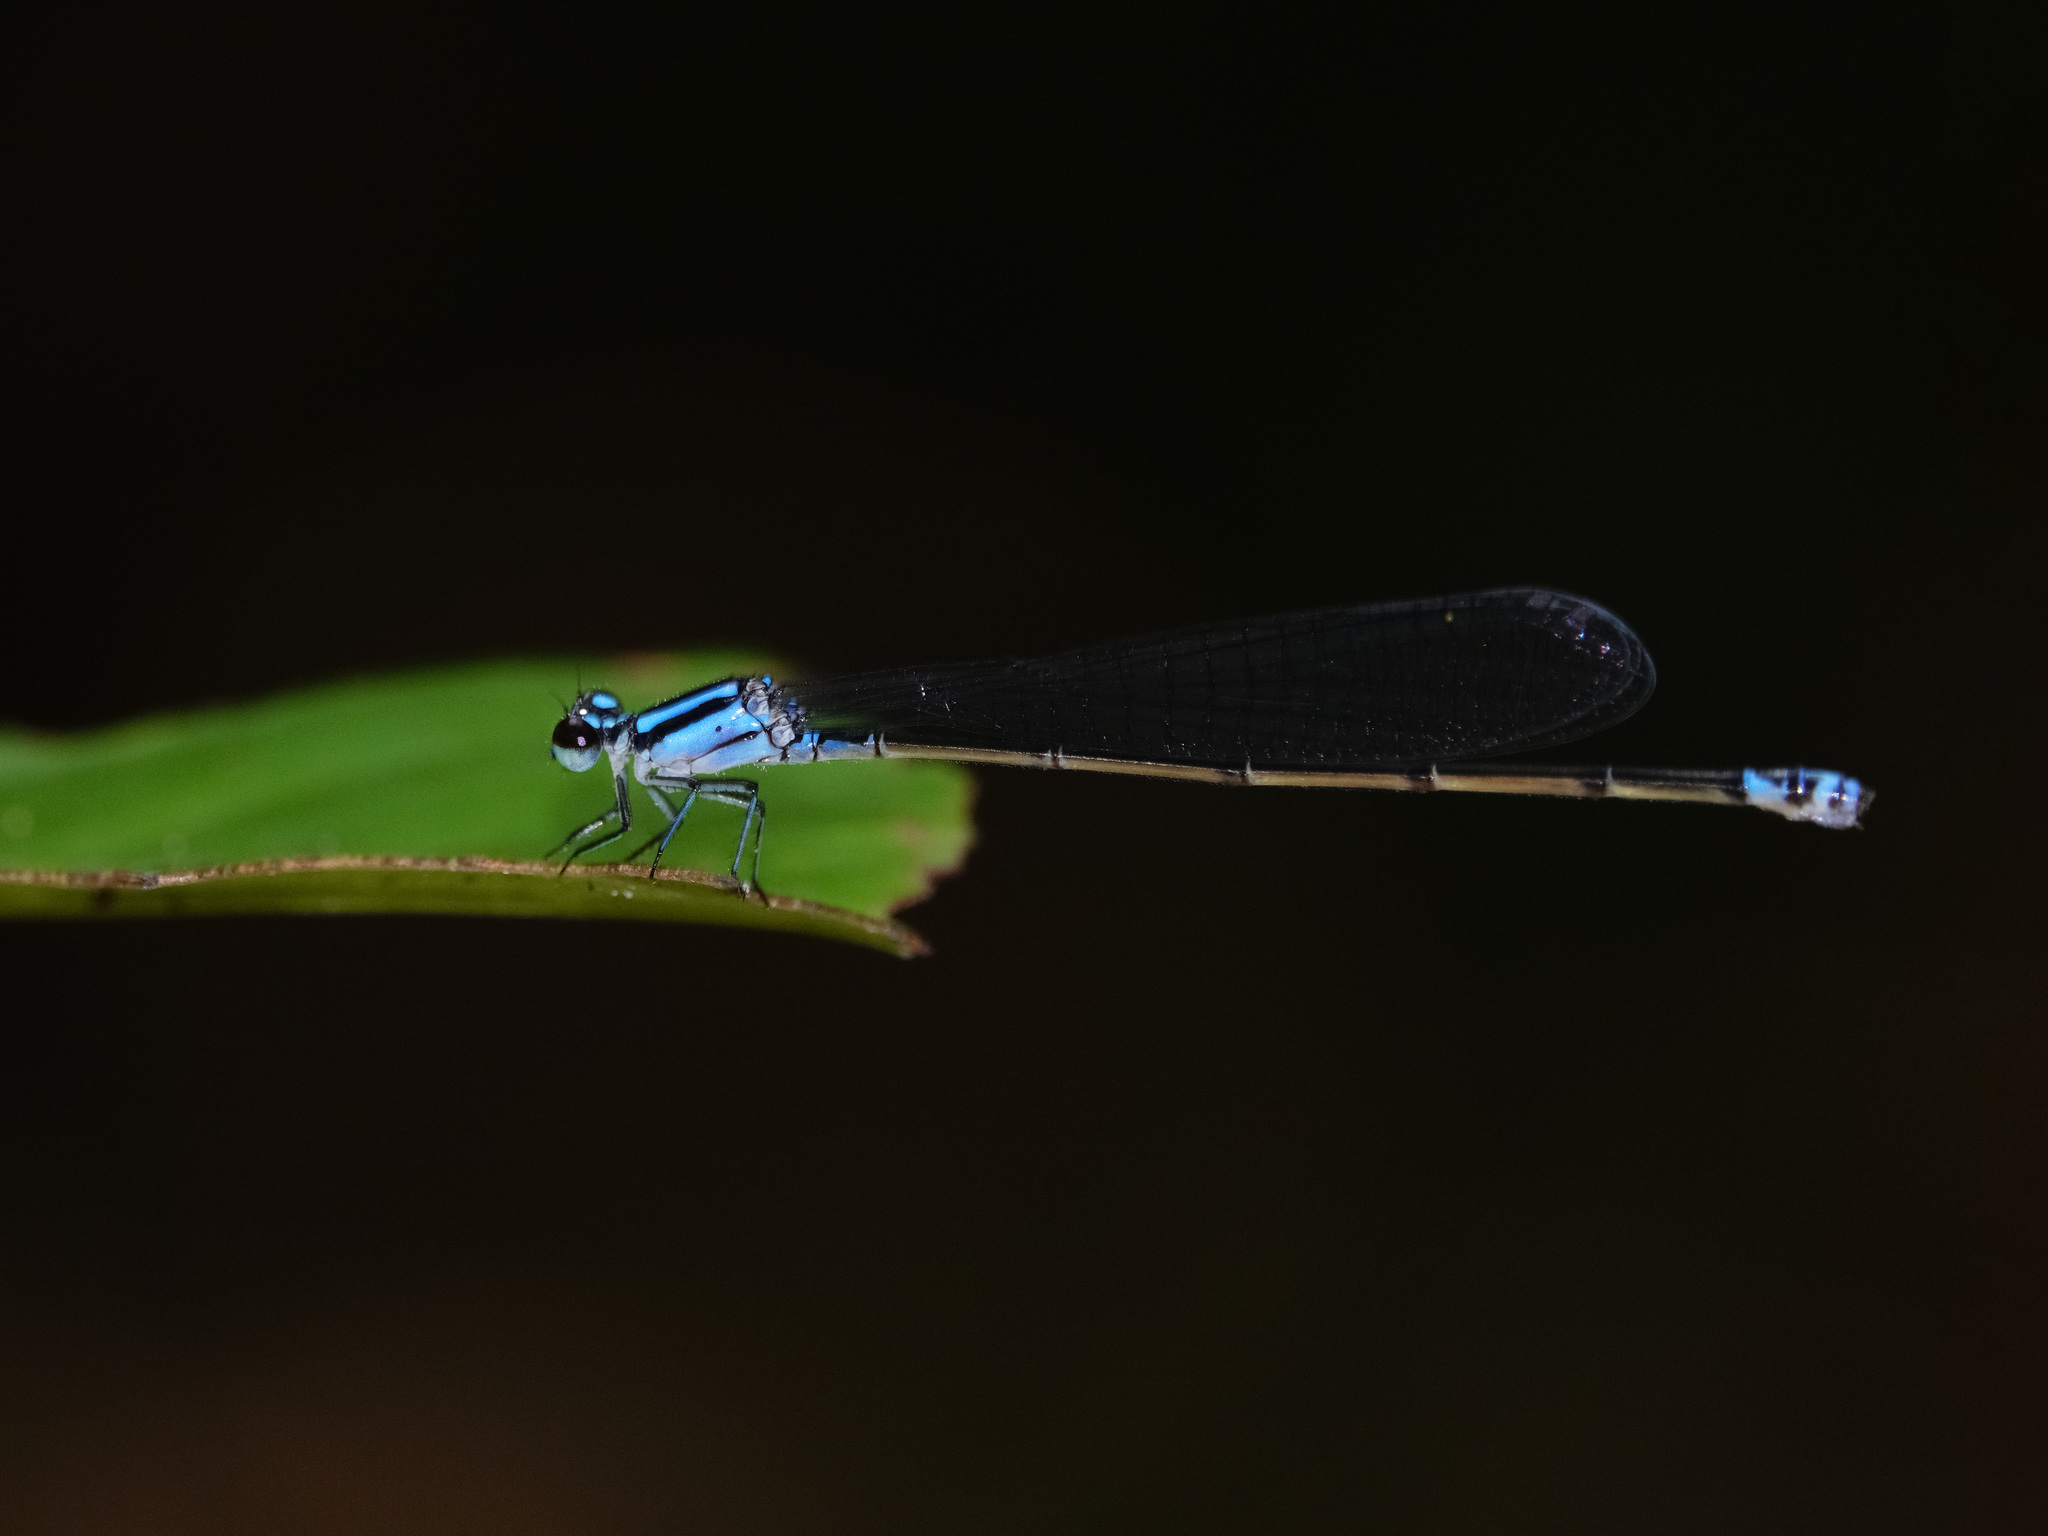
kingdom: Animalia
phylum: Arthropoda
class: Insecta
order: Odonata
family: Coenagrionidae
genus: Archibasis
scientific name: Archibasis melanocyana
